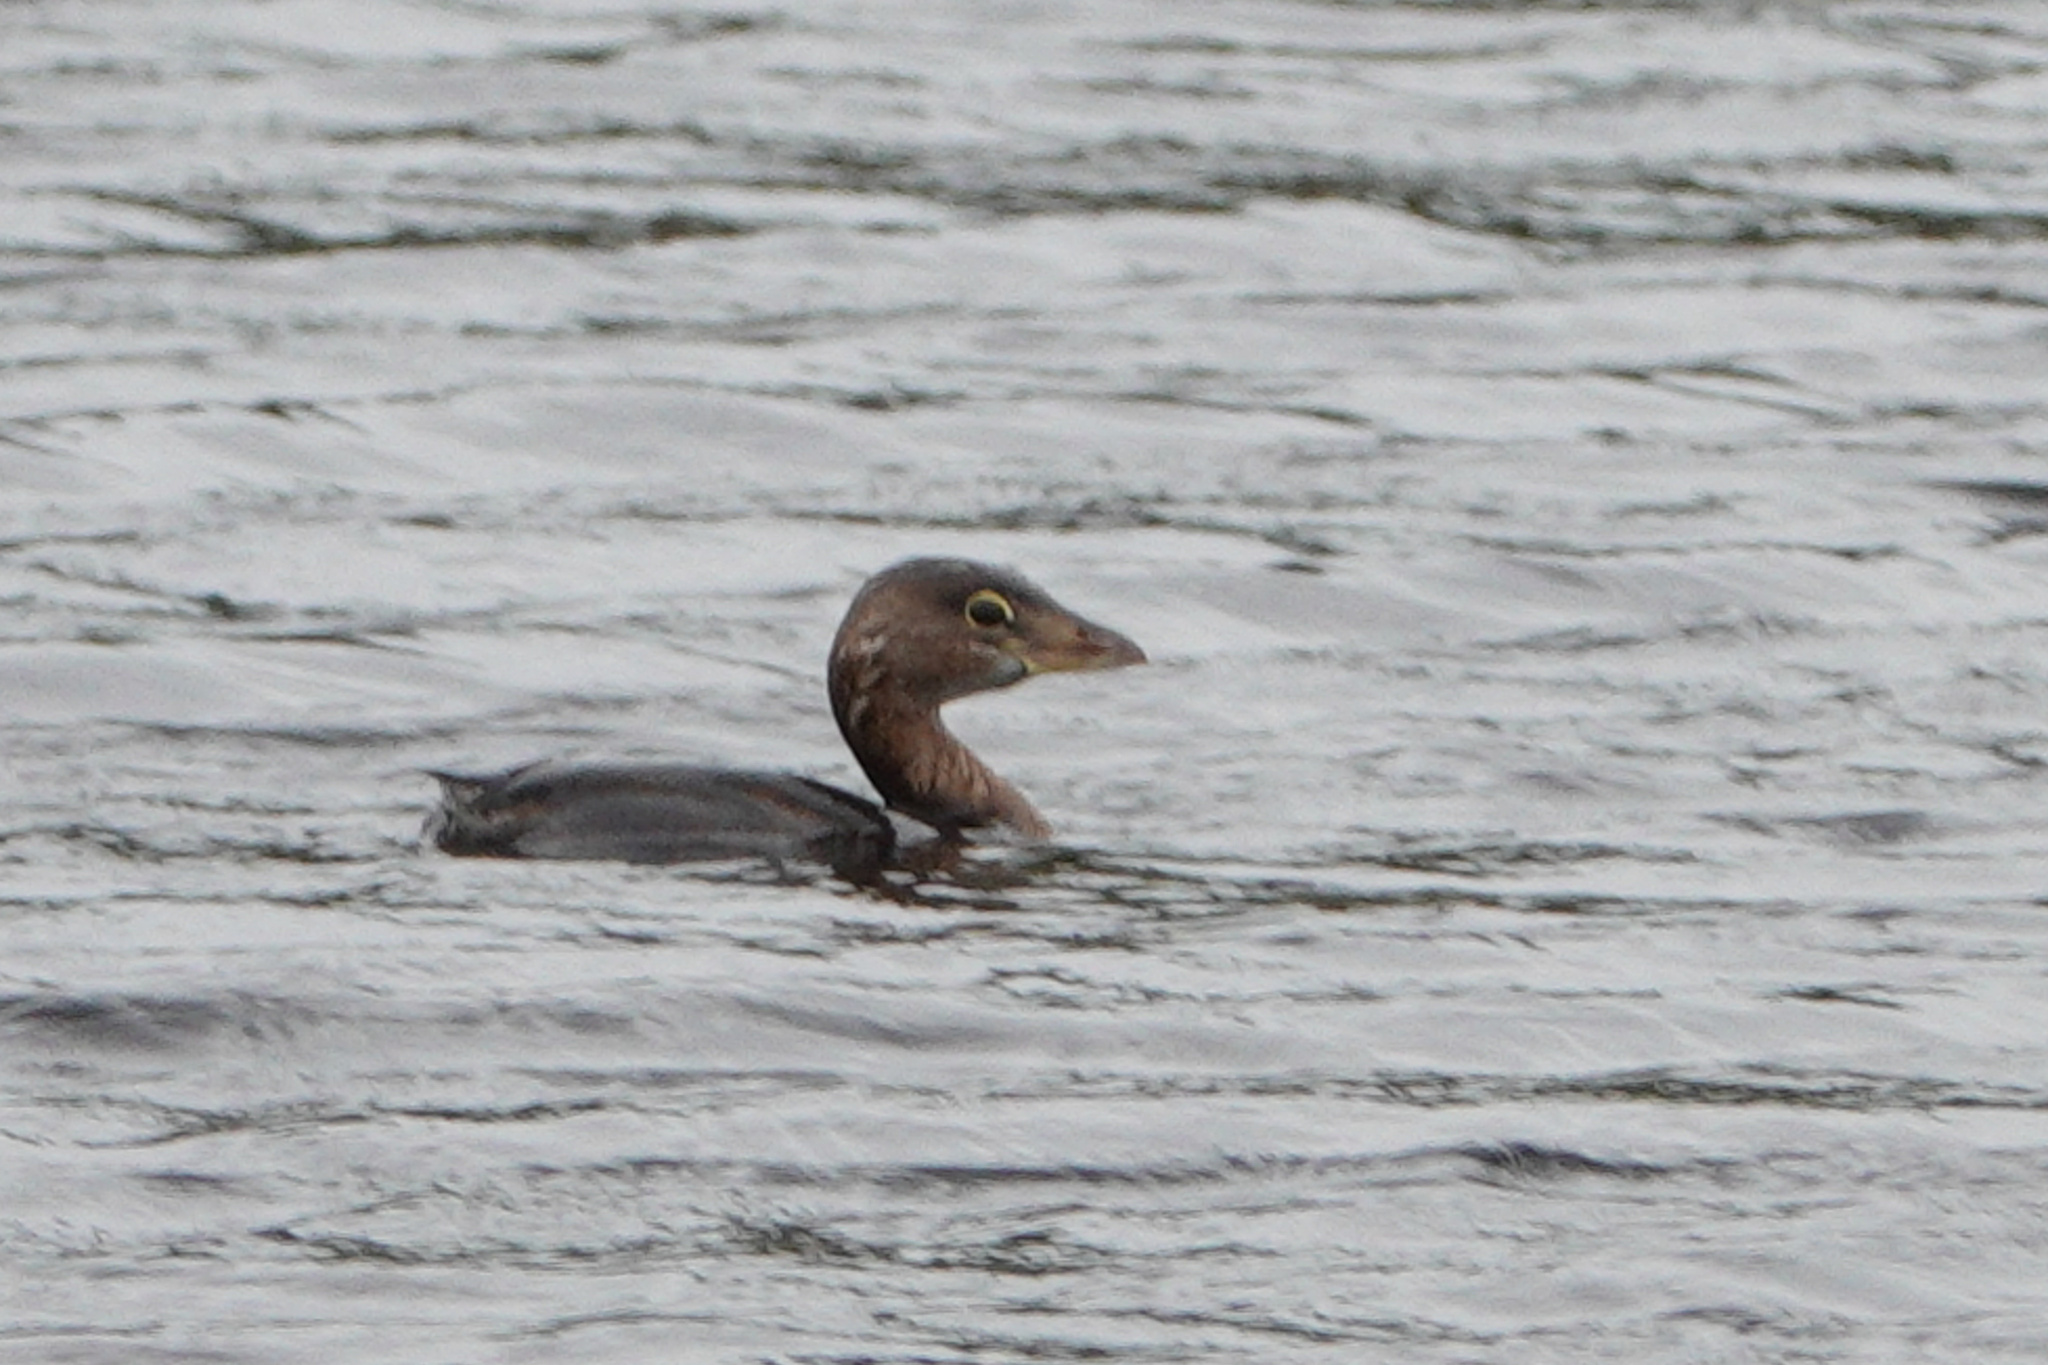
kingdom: Animalia
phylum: Chordata
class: Aves
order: Podicipediformes
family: Podicipedidae
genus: Podilymbus
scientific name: Podilymbus podiceps
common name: Pied-billed grebe
